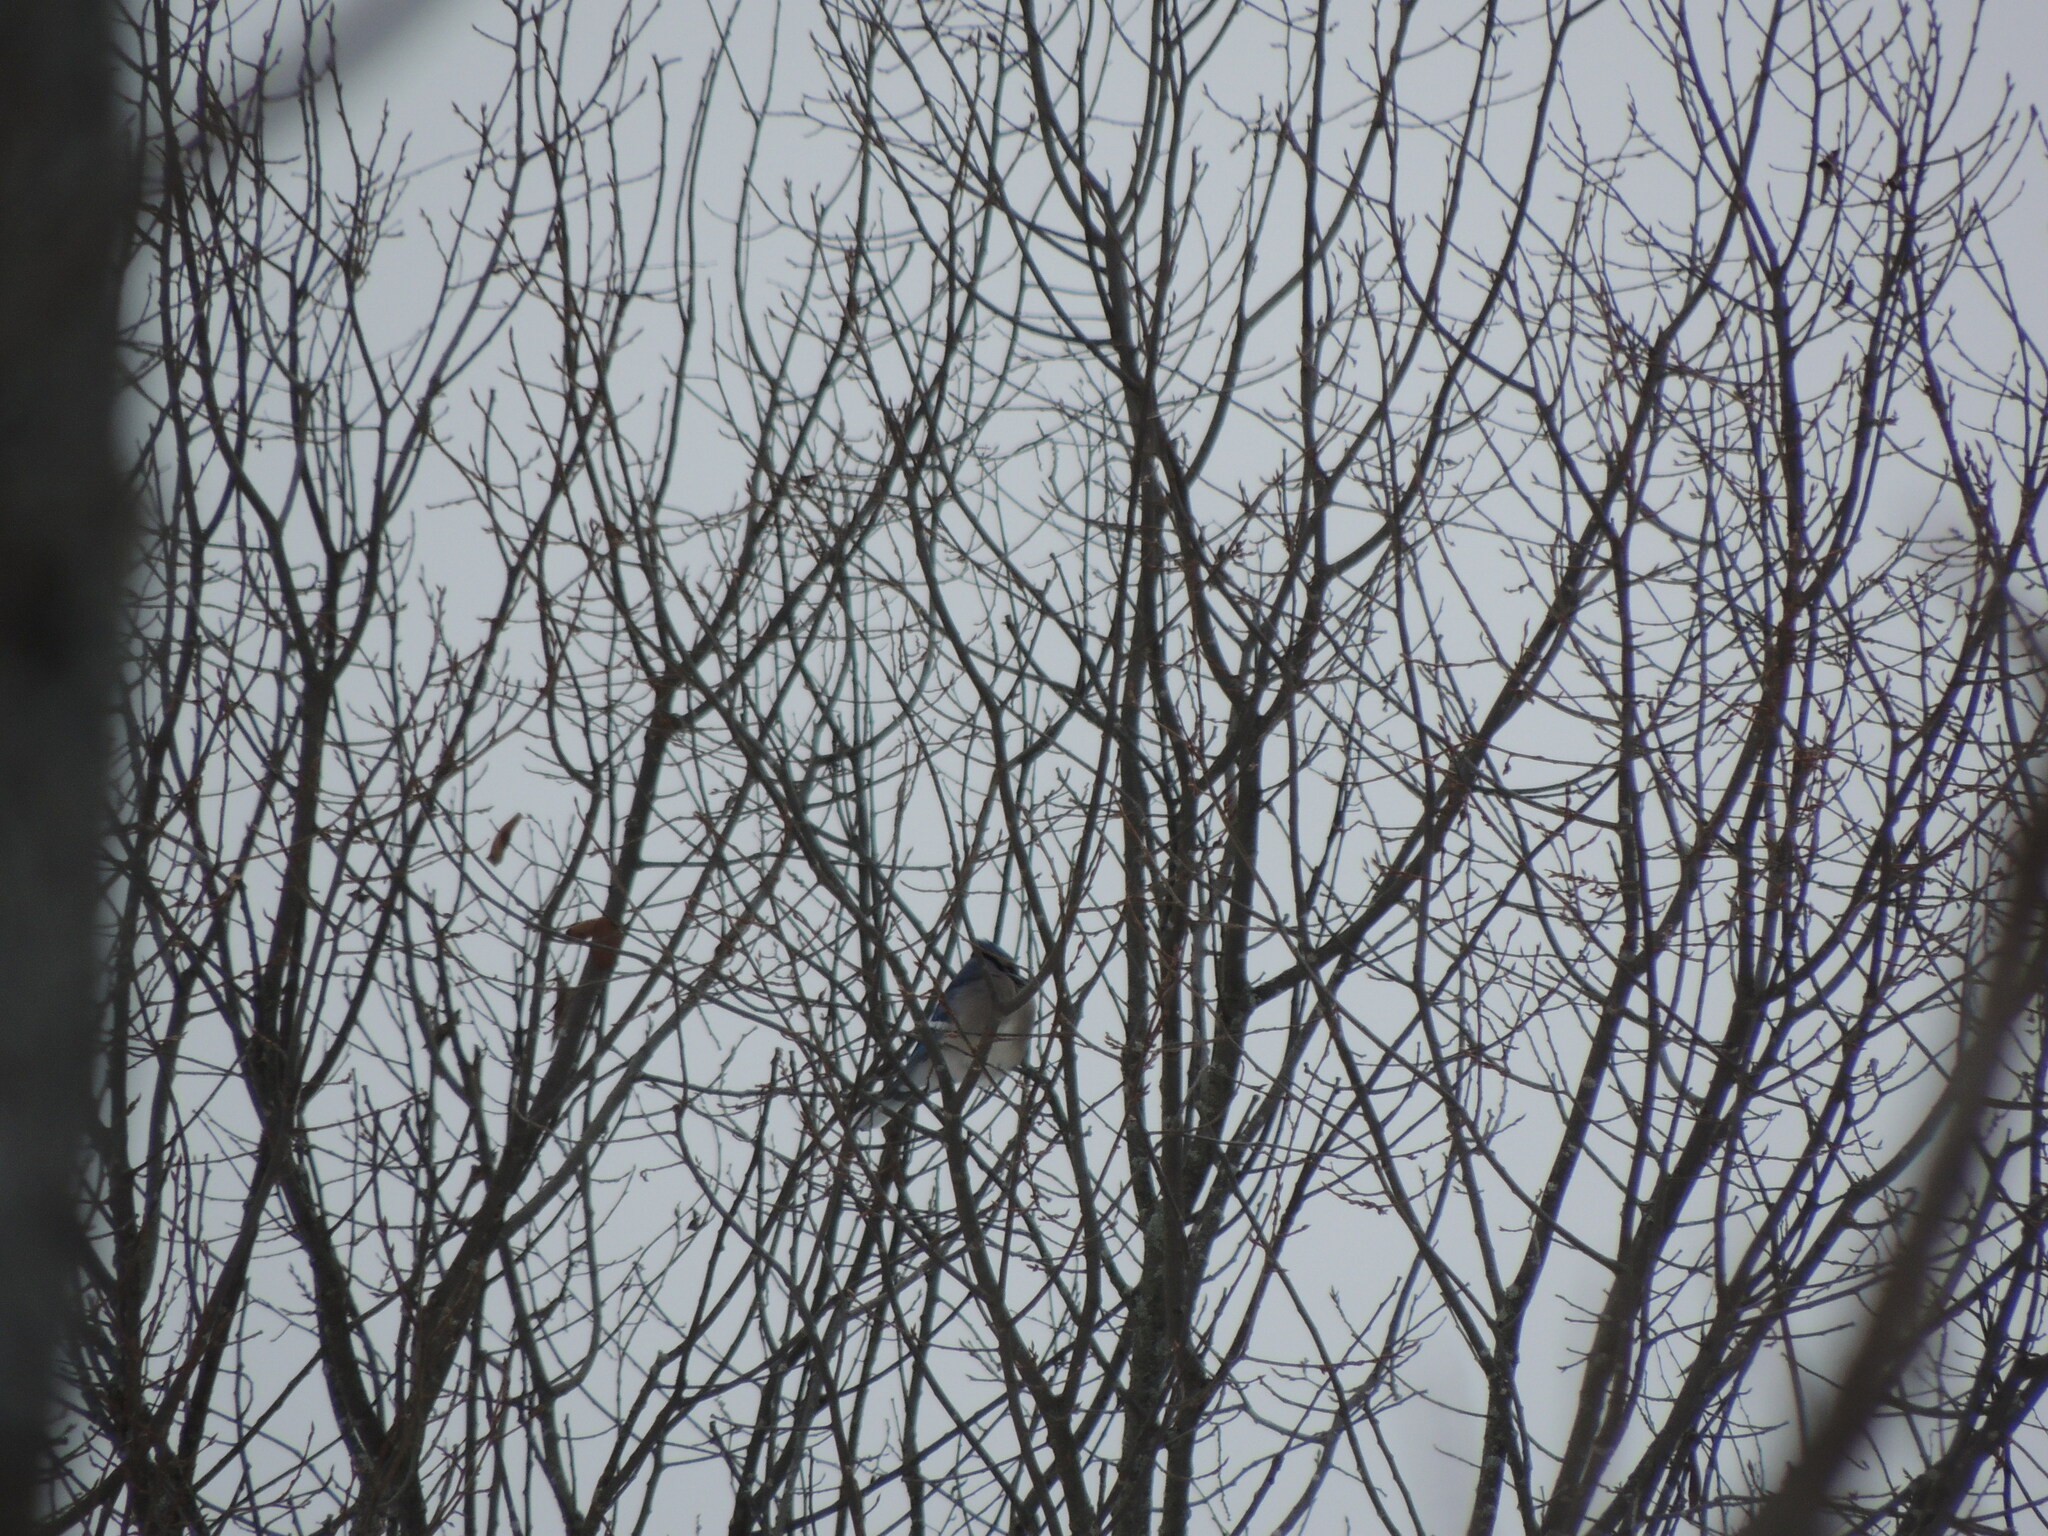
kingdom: Animalia
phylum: Chordata
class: Aves
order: Passeriformes
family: Corvidae
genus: Cyanocitta
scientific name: Cyanocitta cristata
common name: Blue jay
